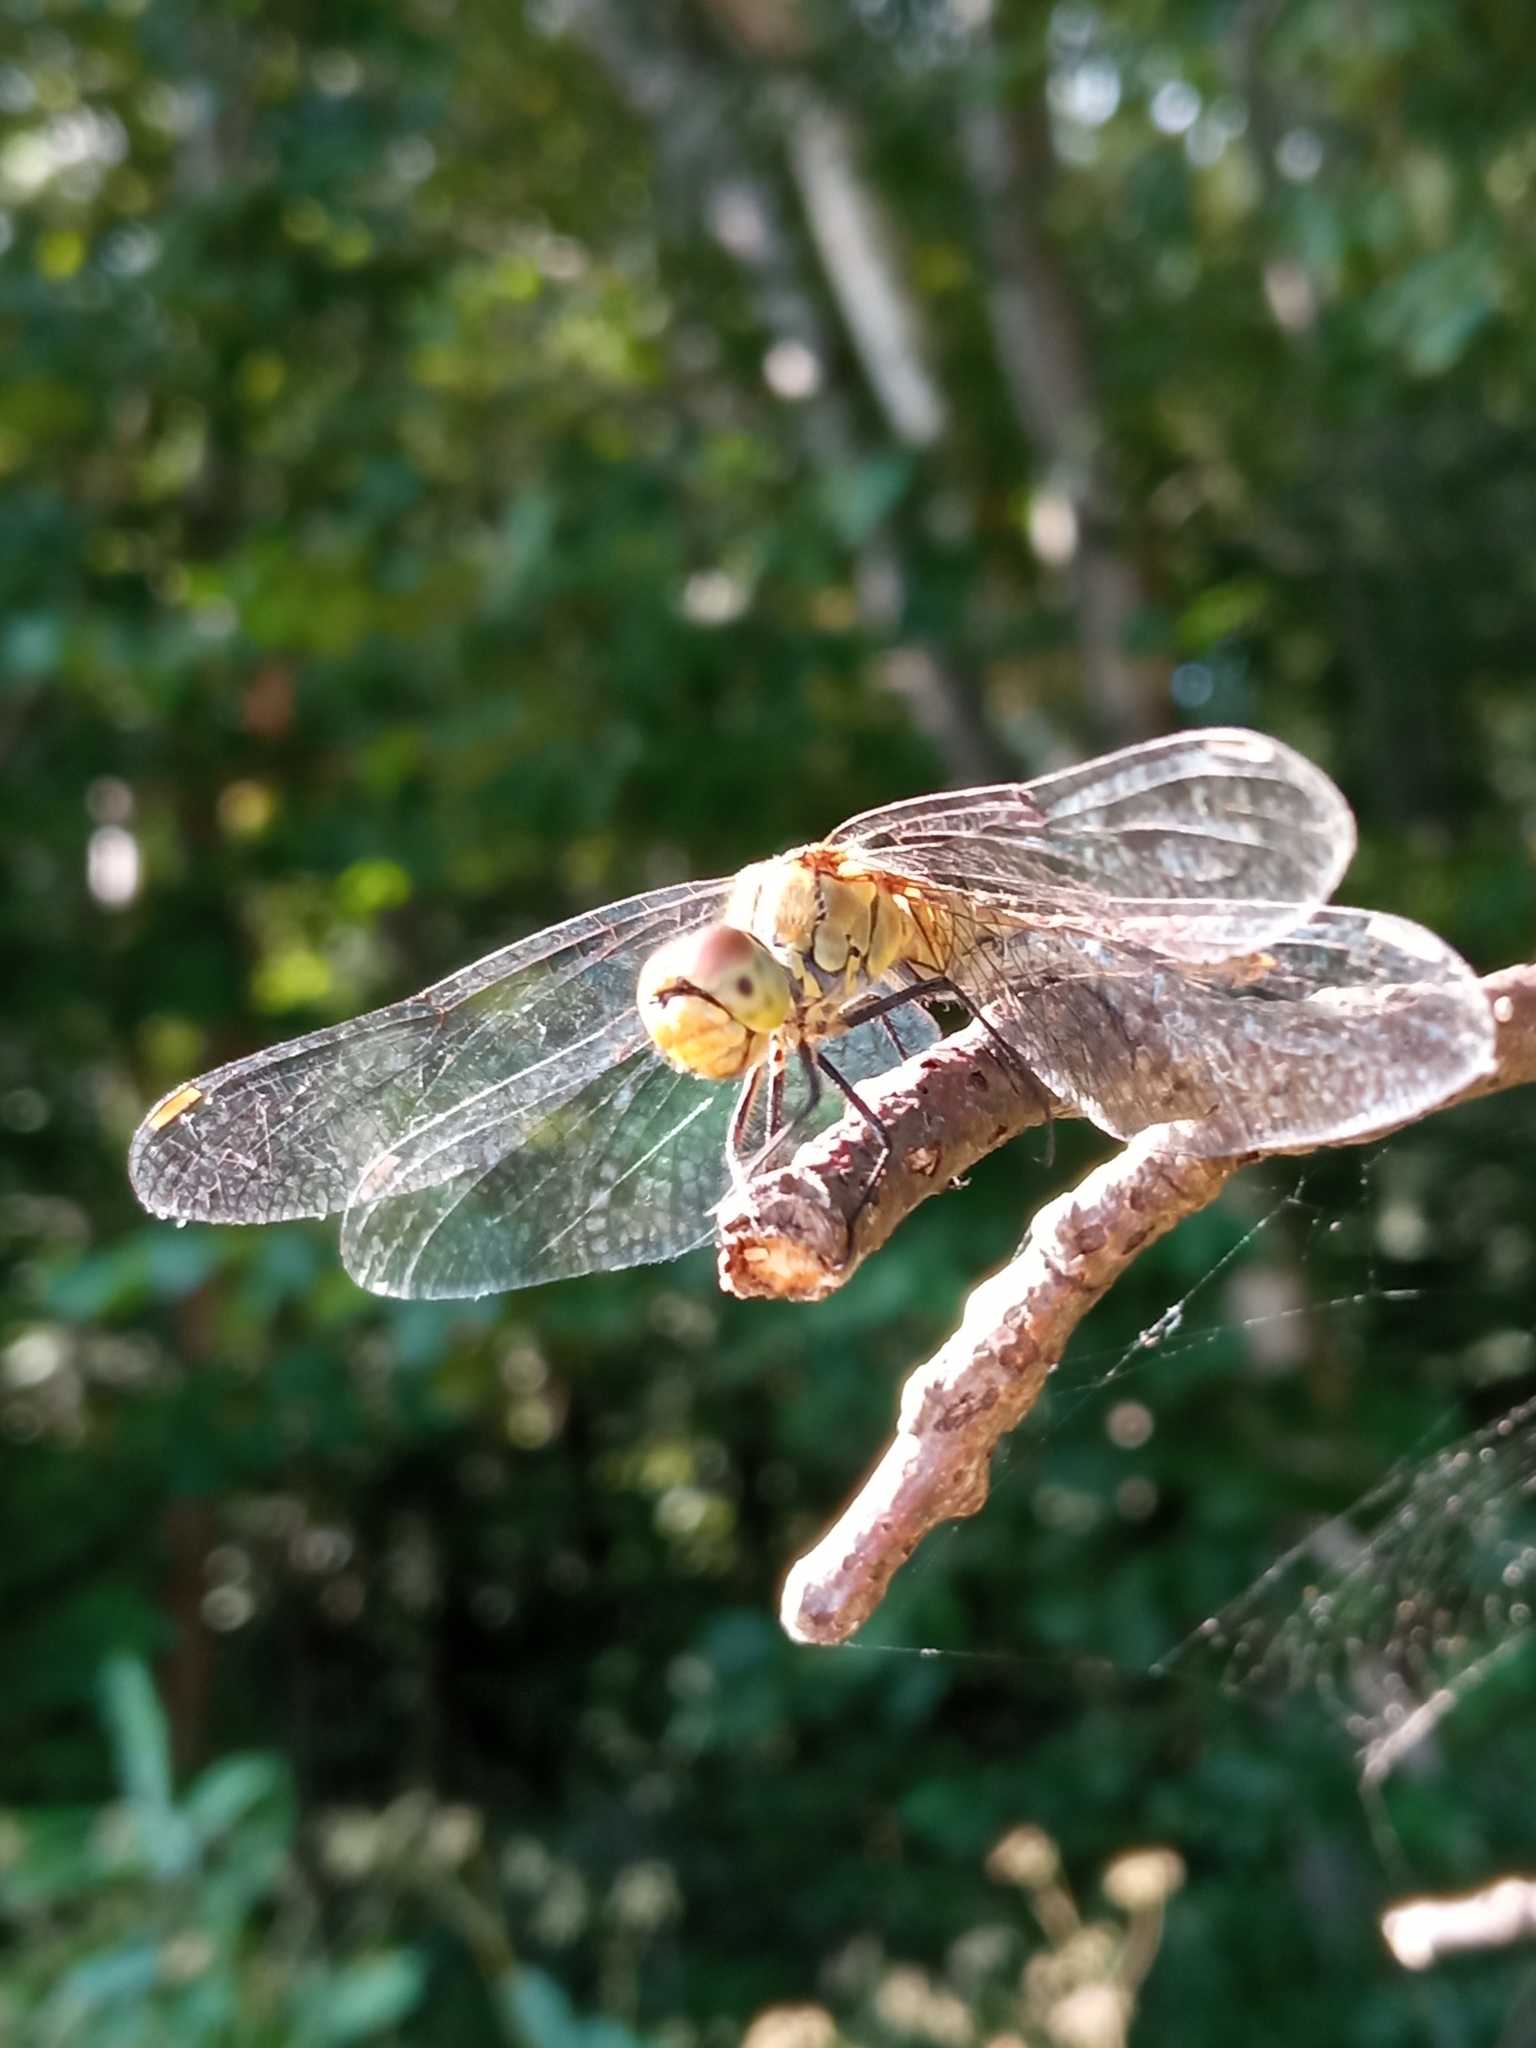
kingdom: Animalia
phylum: Arthropoda
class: Insecta
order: Odonata
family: Libellulidae
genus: Sympetrum
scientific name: Sympetrum sanguineum
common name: Ruddy darter
